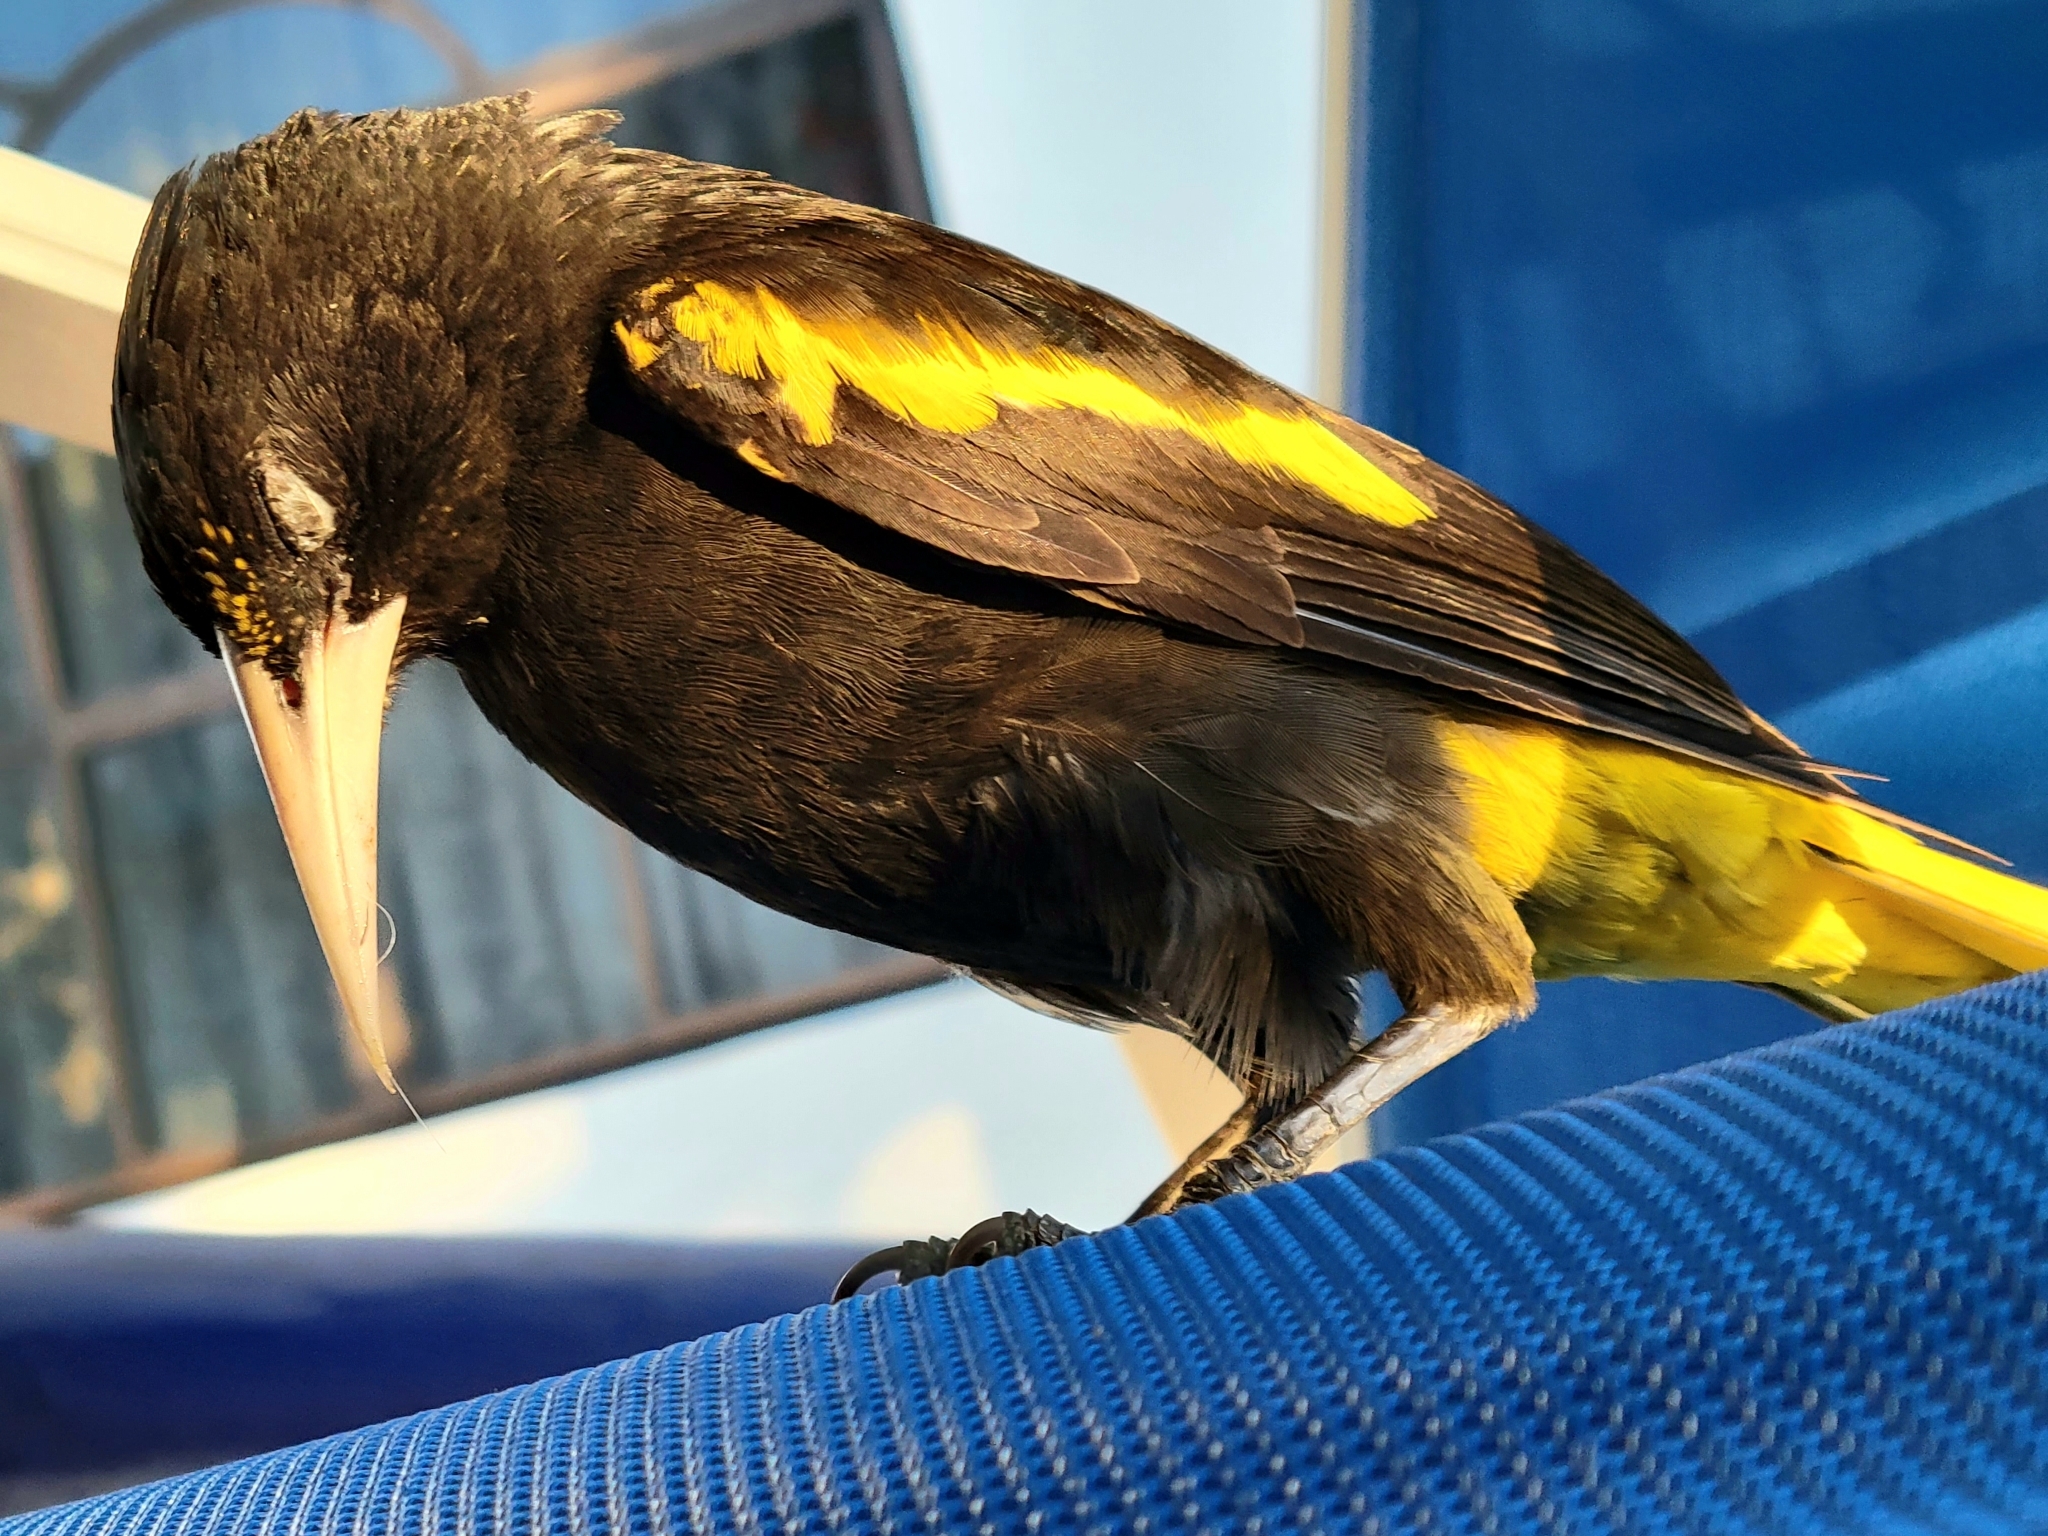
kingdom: Animalia
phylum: Chordata
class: Aves
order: Passeriformes
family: Icteridae
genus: Cacicus
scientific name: Cacicus melanicterus
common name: Yellow-winged cacique
